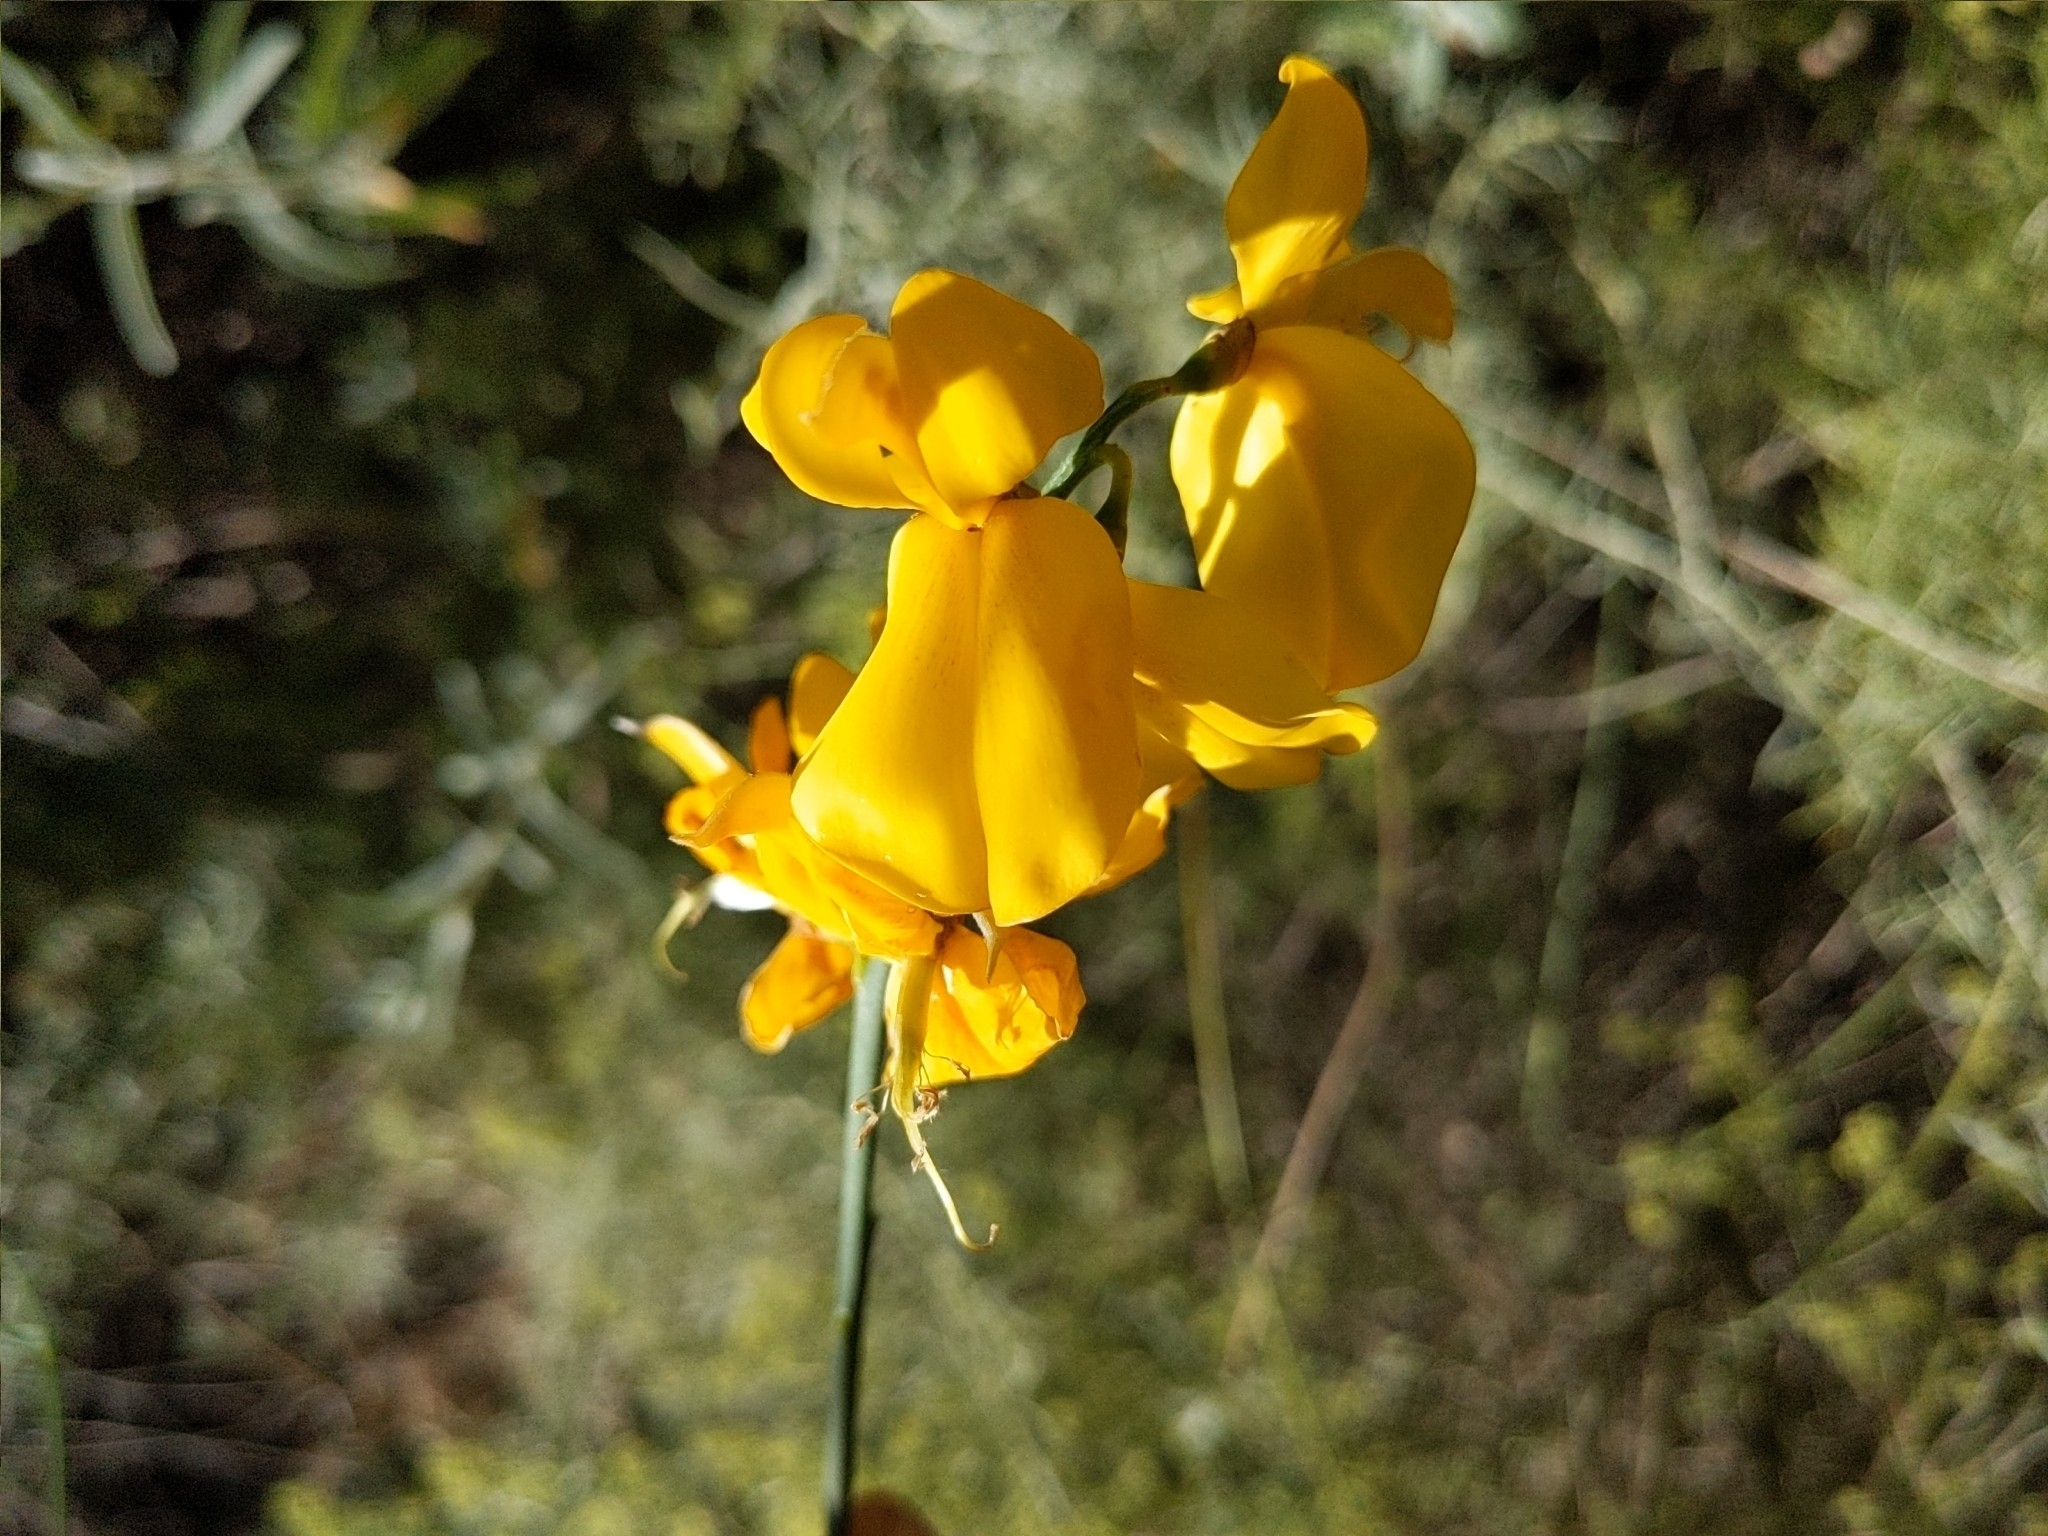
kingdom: Plantae
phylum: Tracheophyta
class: Magnoliopsida
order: Fabales
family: Fabaceae
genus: Spartium
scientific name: Spartium junceum
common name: Spanish broom
